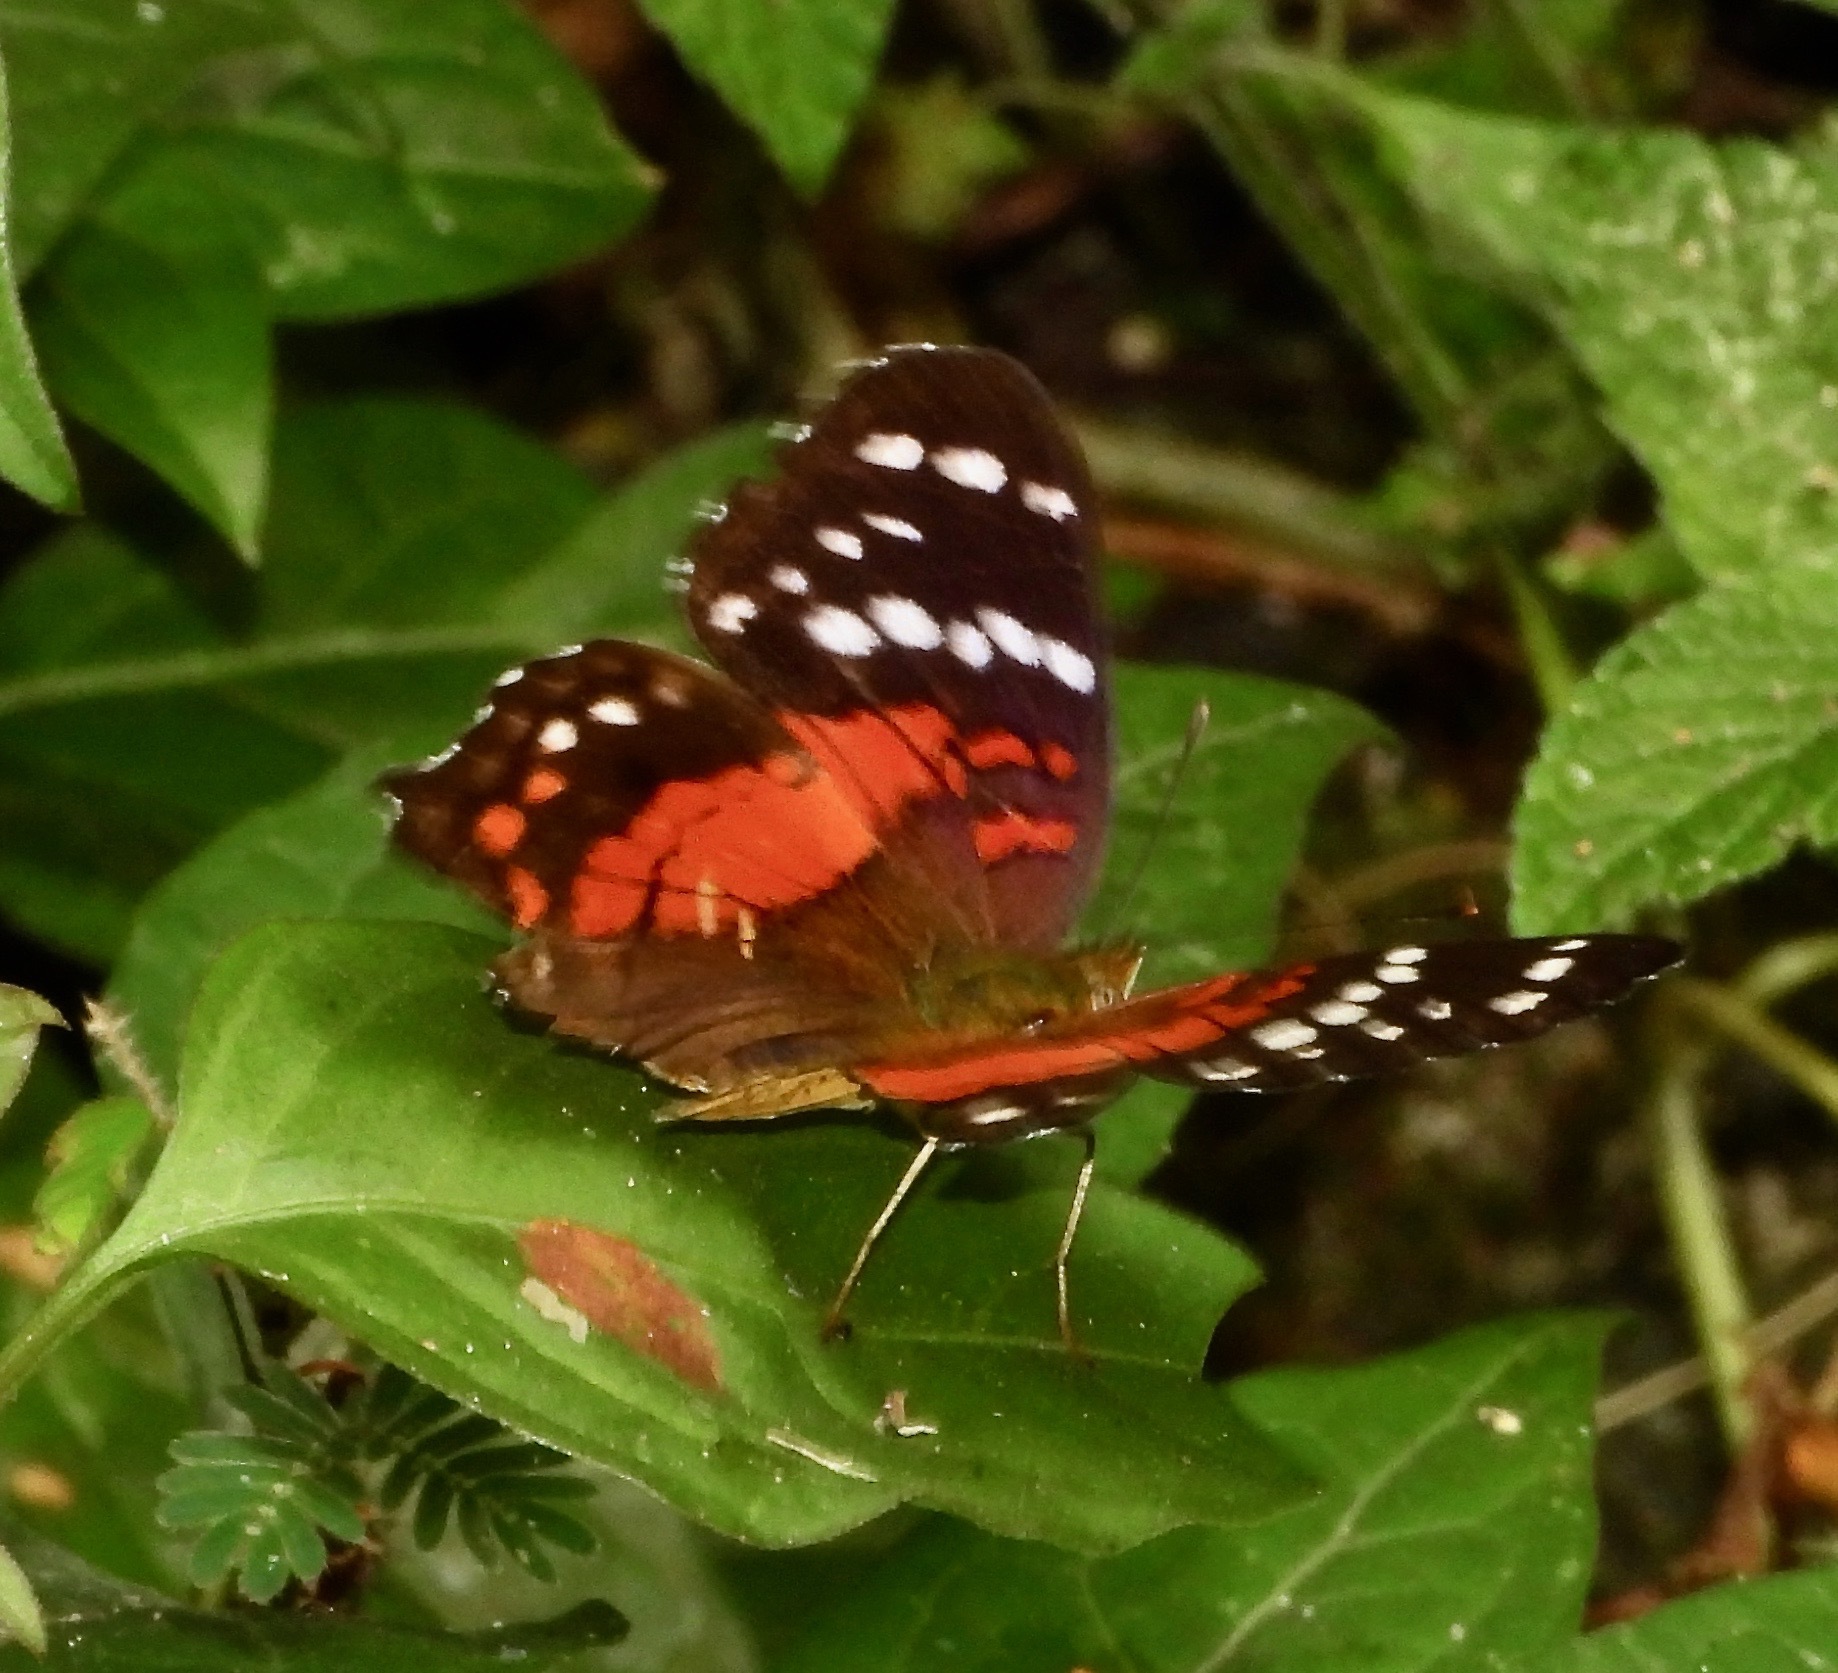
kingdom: Animalia
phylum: Arthropoda
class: Insecta
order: Lepidoptera
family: Nymphalidae
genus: Anartia
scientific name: Anartia amathea
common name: Red peacock
